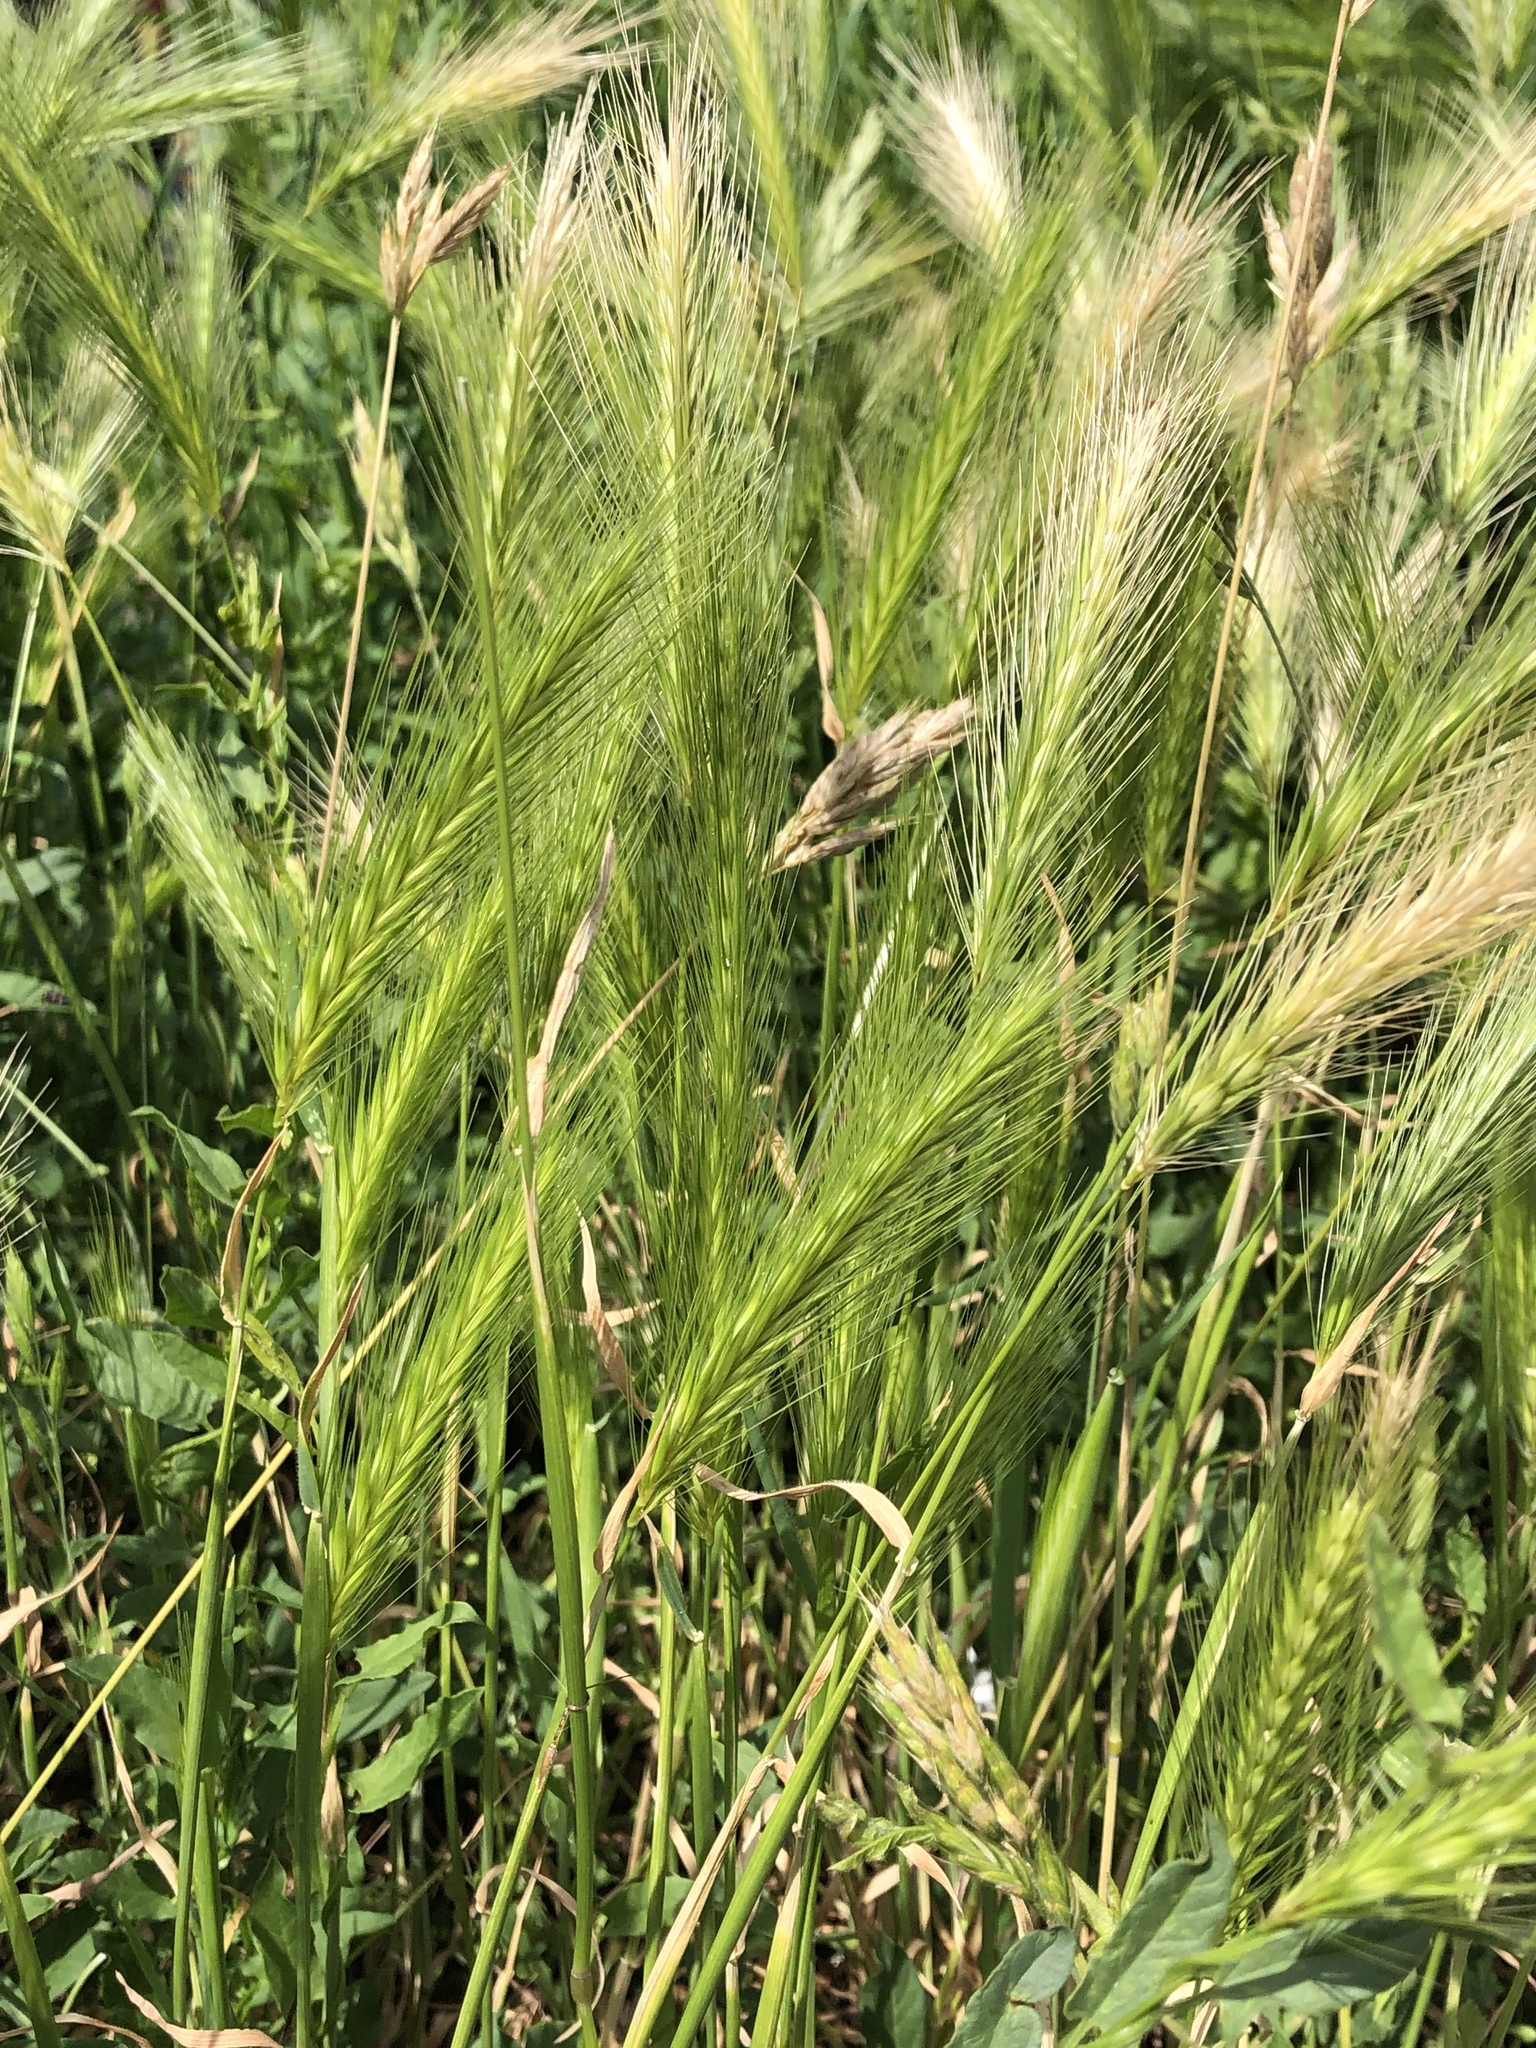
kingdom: Plantae
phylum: Tracheophyta
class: Liliopsida
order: Poales
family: Poaceae
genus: Hordeum
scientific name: Hordeum murinum
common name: Wall barley
